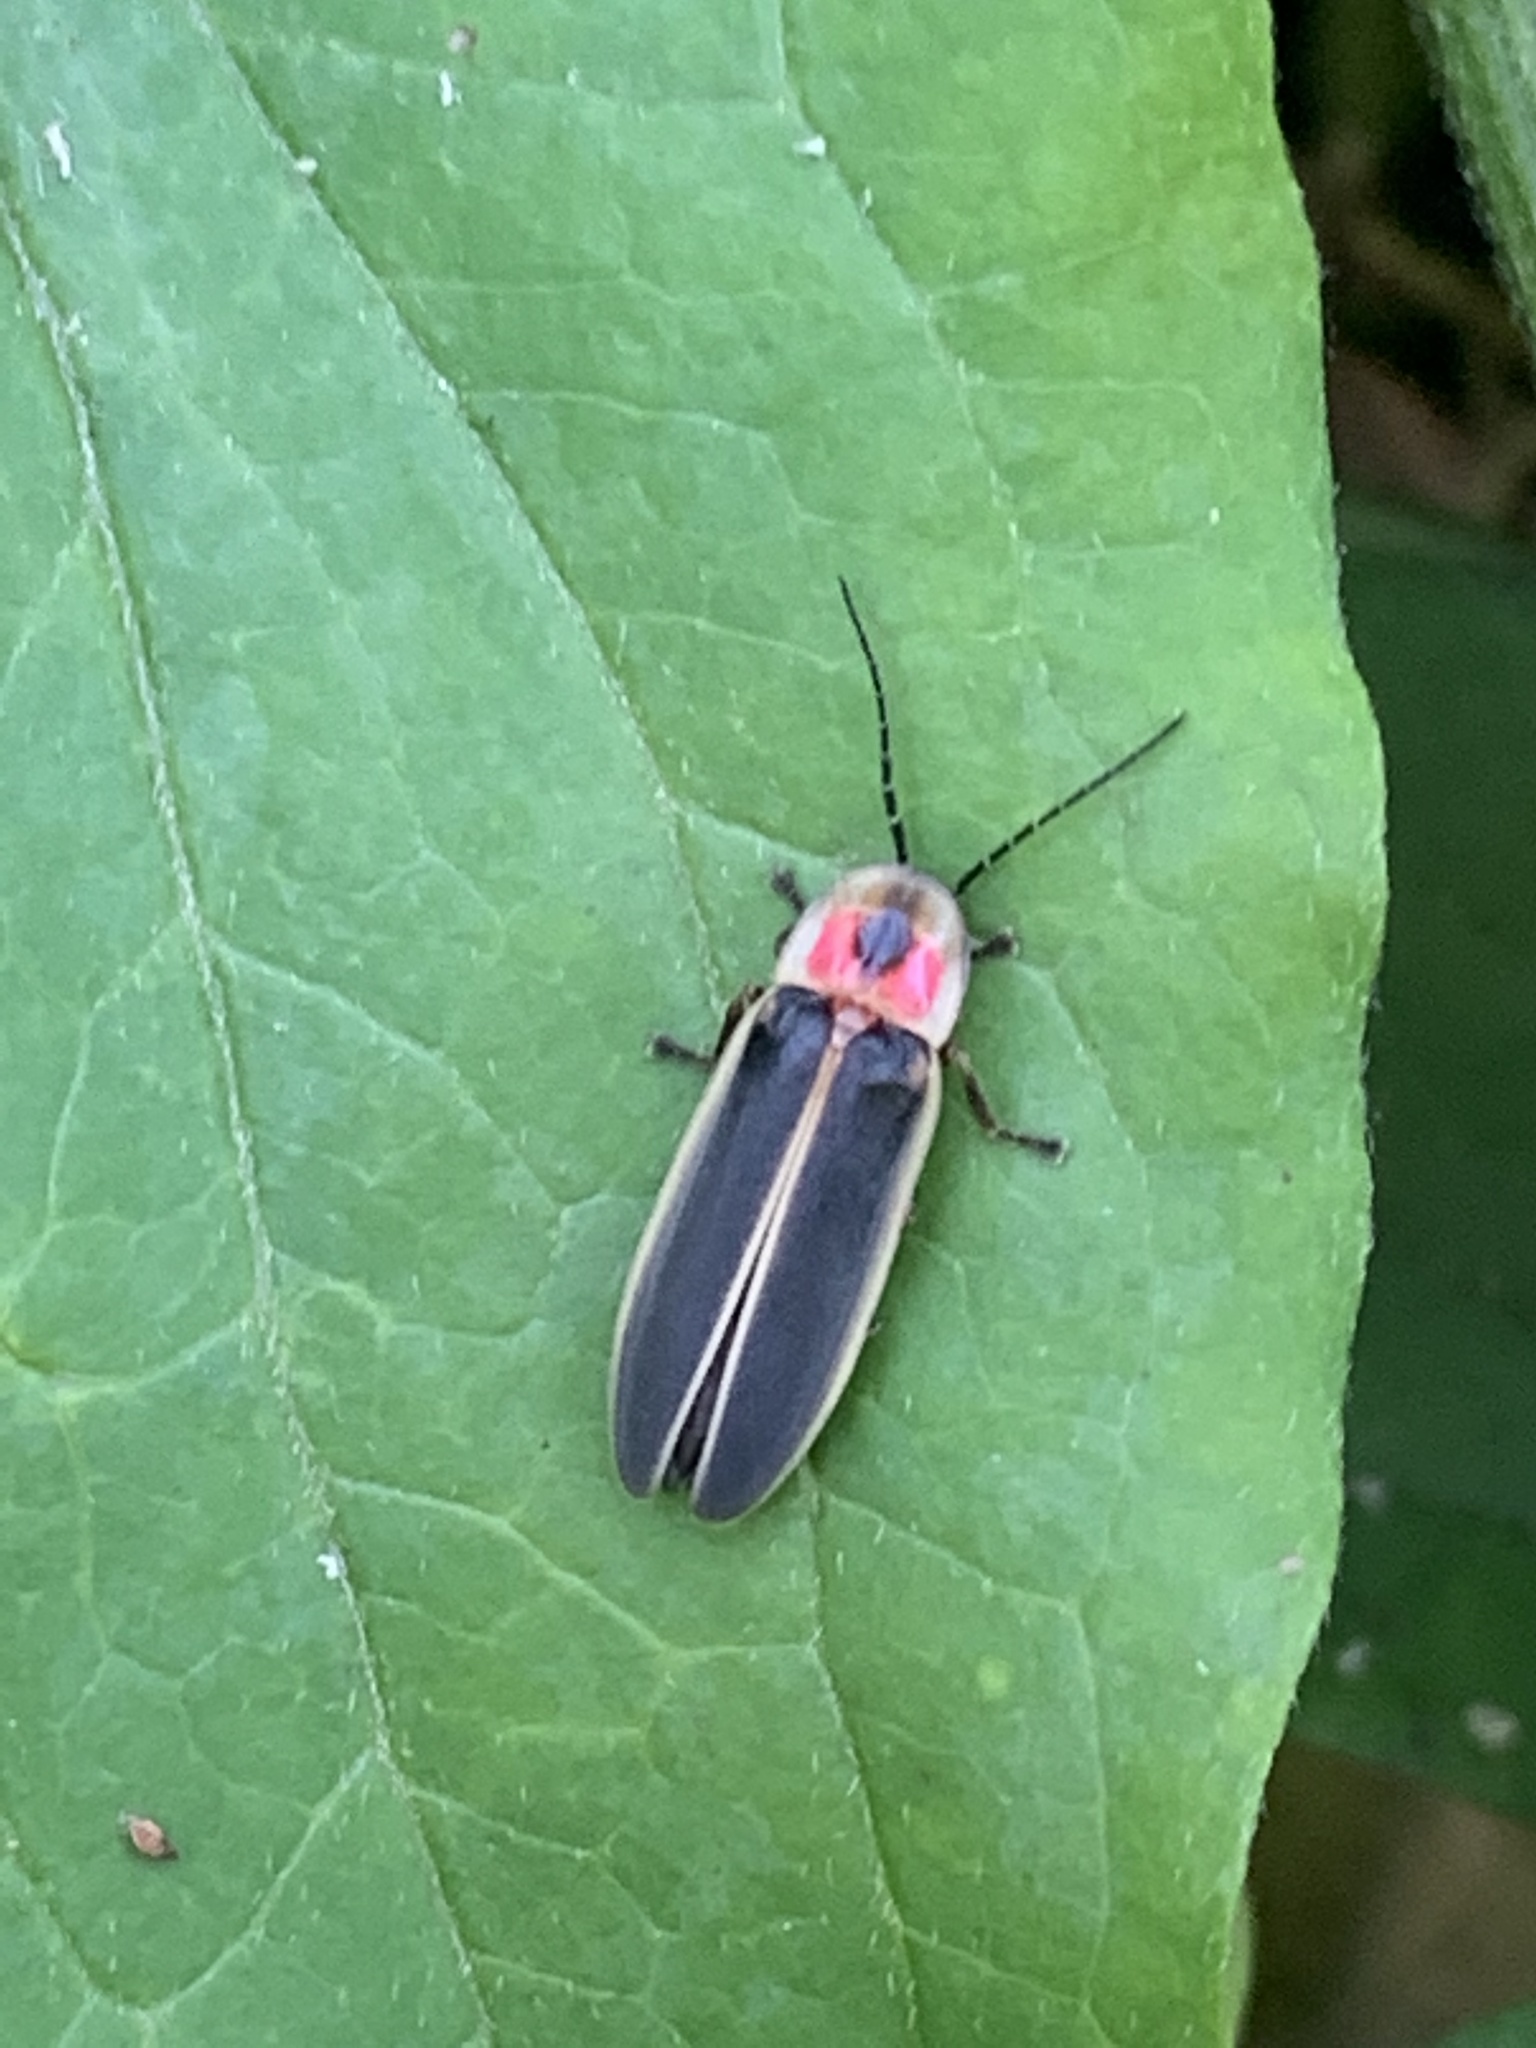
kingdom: Animalia
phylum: Arthropoda
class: Insecta
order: Coleoptera
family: Lampyridae
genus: Photinus
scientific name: Photinus pyralis
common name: Big dipper firefly
